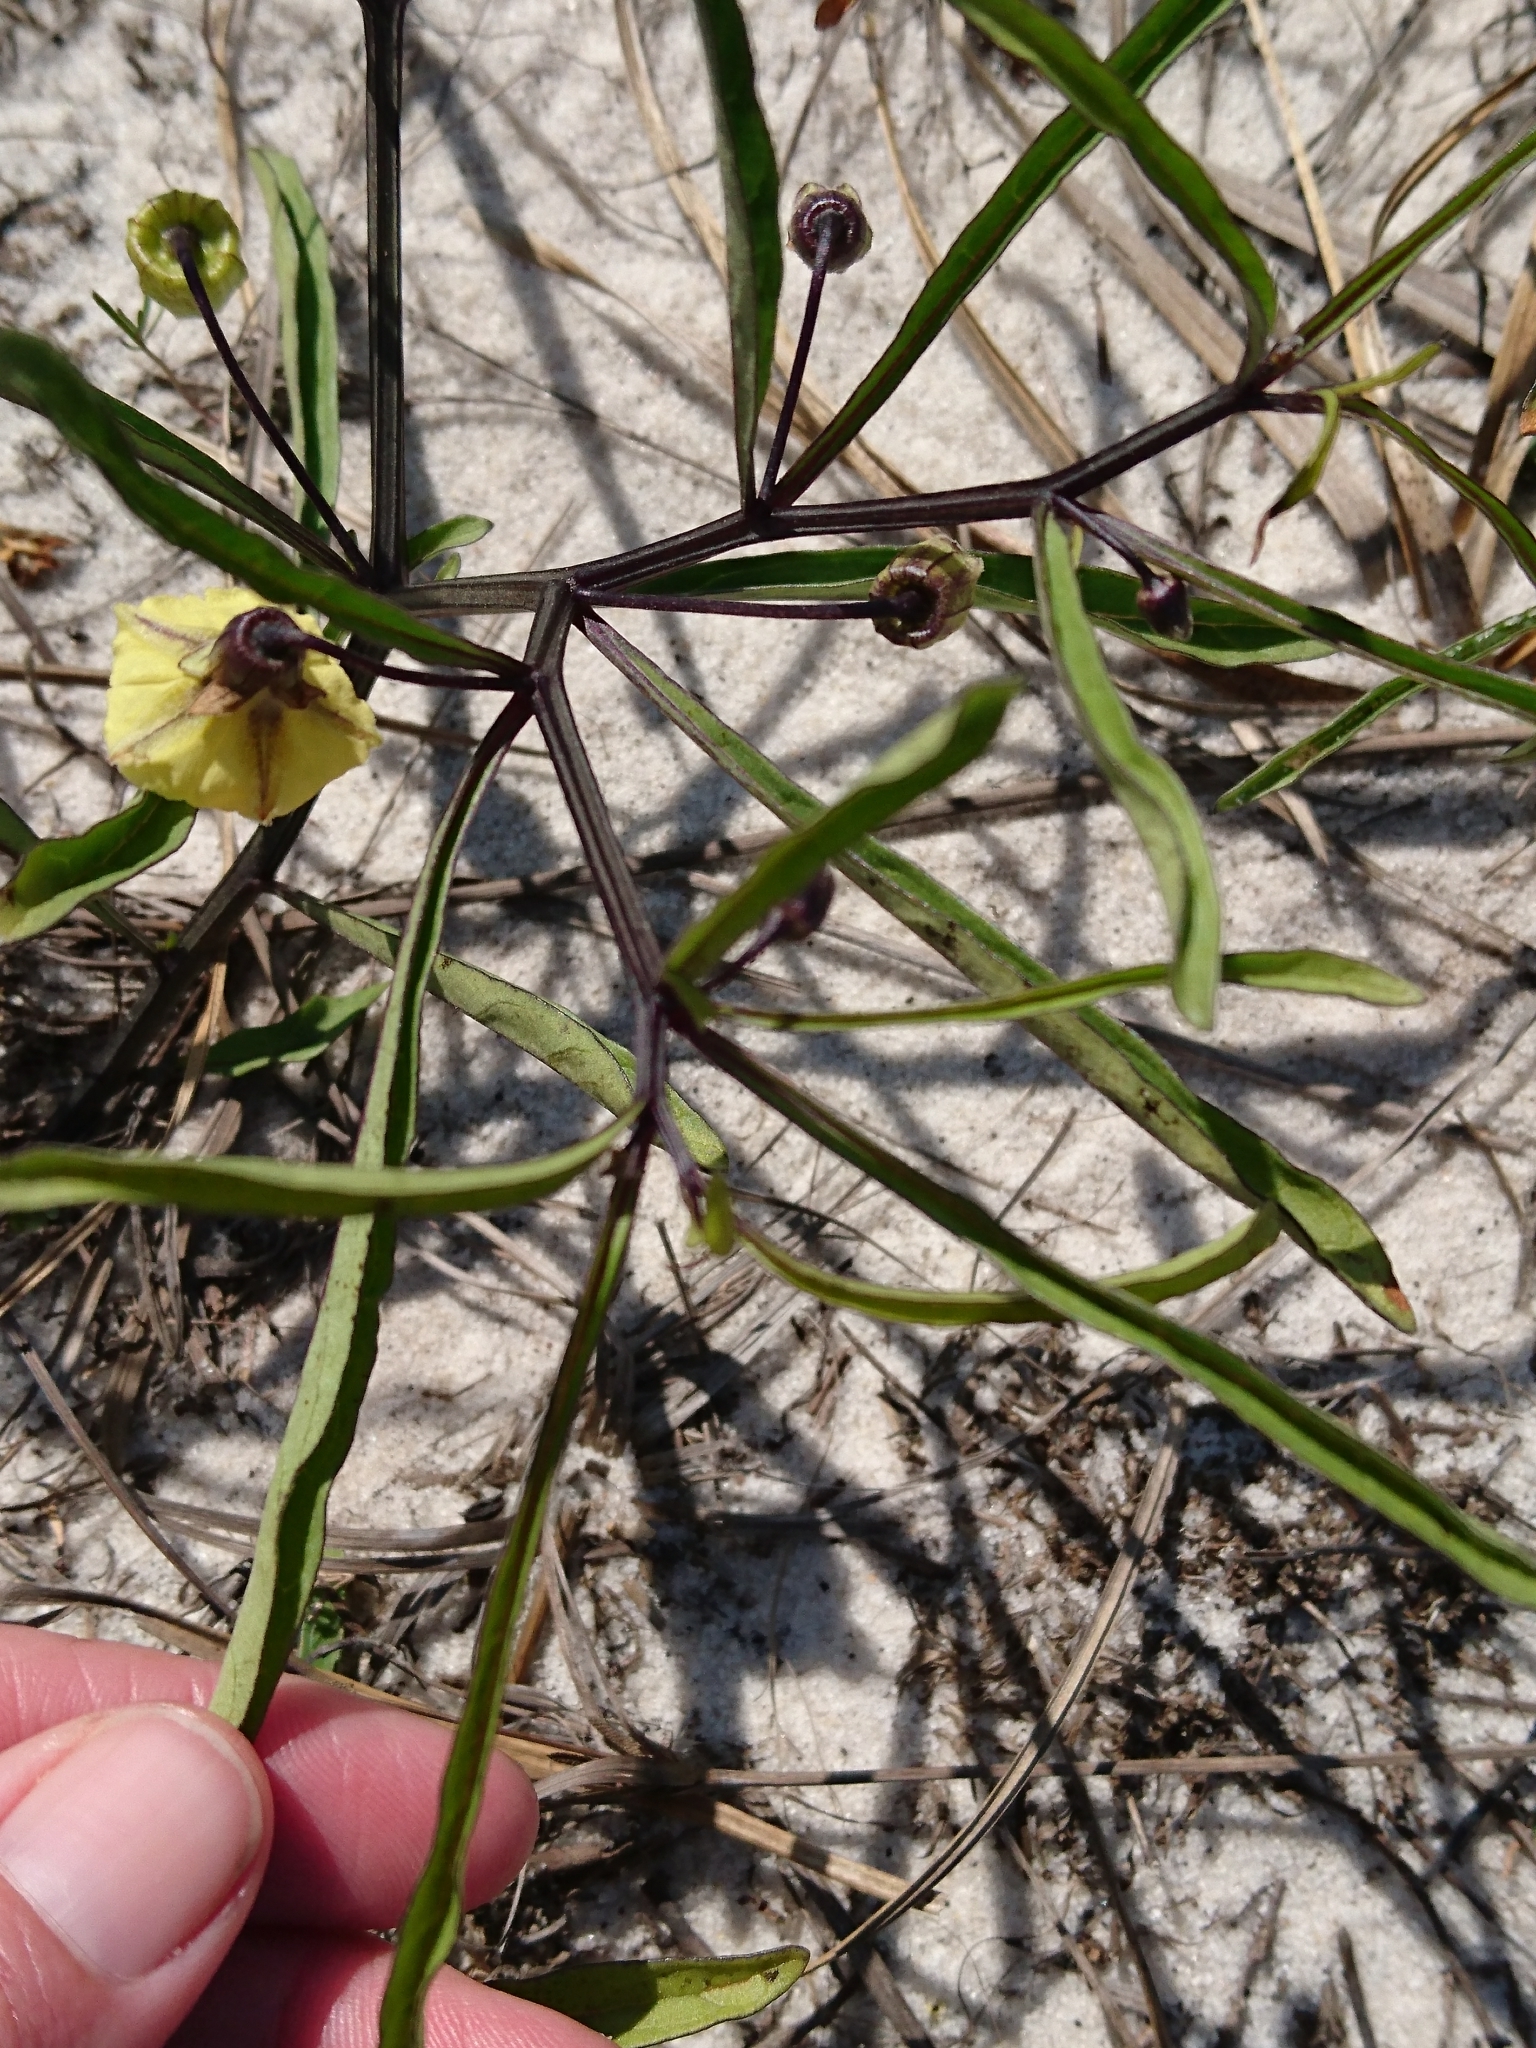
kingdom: Plantae
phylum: Tracheophyta
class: Magnoliopsida
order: Solanales
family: Solanaceae
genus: Physalis
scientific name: Physalis angustifolia
